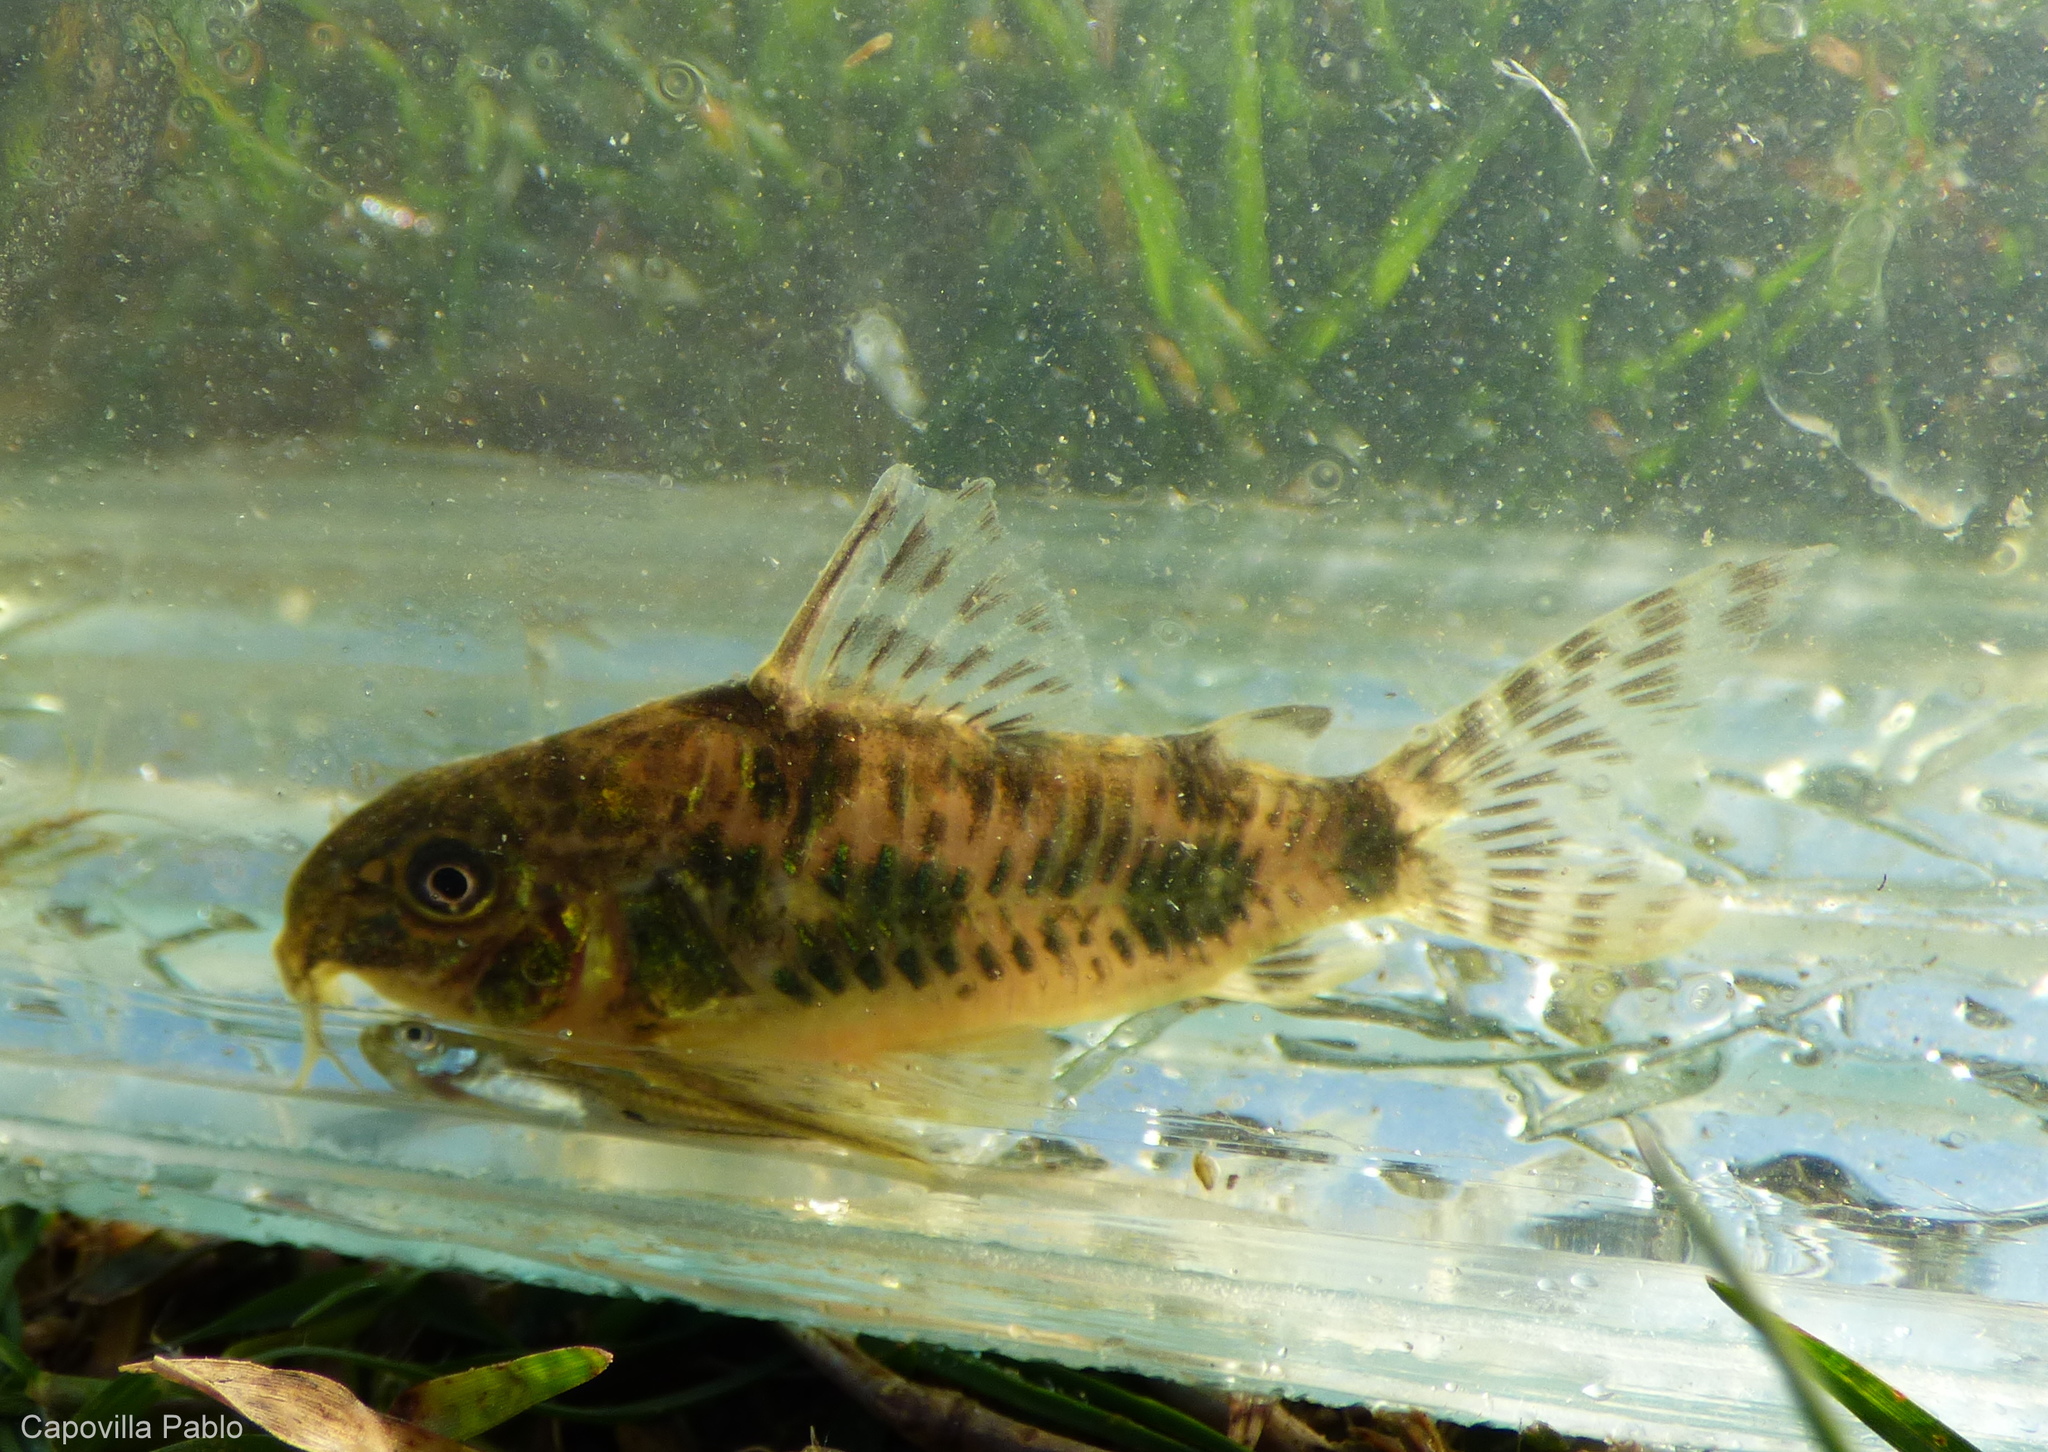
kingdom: Animalia
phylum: Chordata
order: Siluriformes
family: Callichthyidae
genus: Corydoras
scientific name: Corydoras longipinnis
